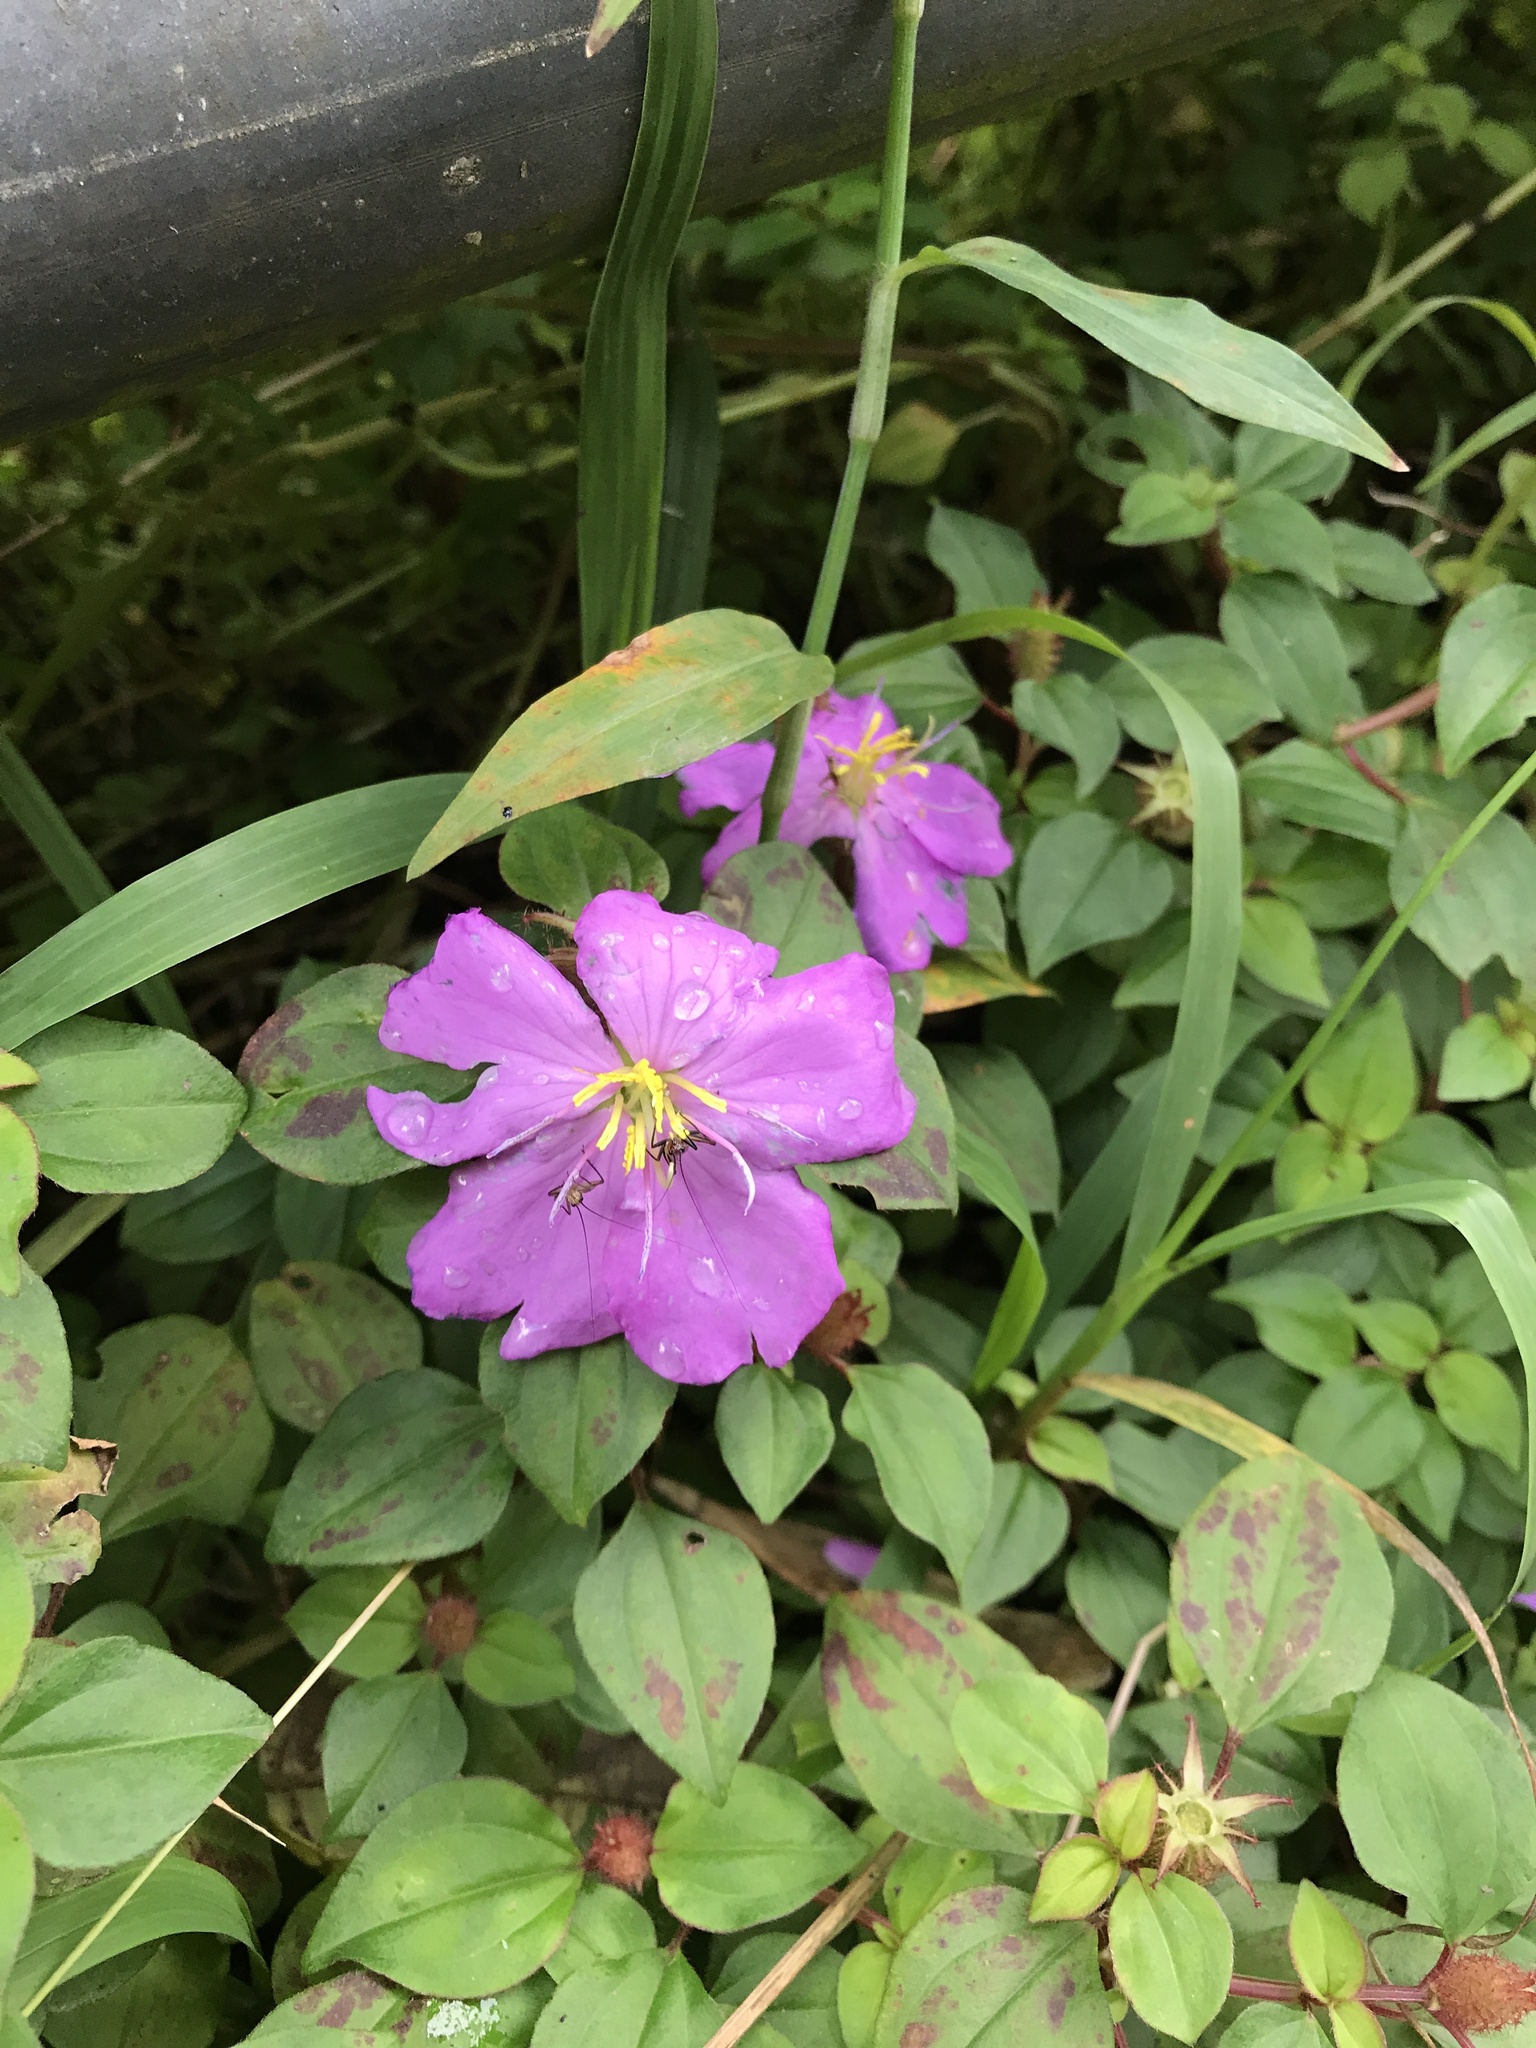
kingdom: Plantae
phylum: Tracheophyta
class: Magnoliopsida
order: Myrtales
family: Melastomataceae
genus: Heterotis
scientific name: Heterotis rotundifolia
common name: Pinklady
